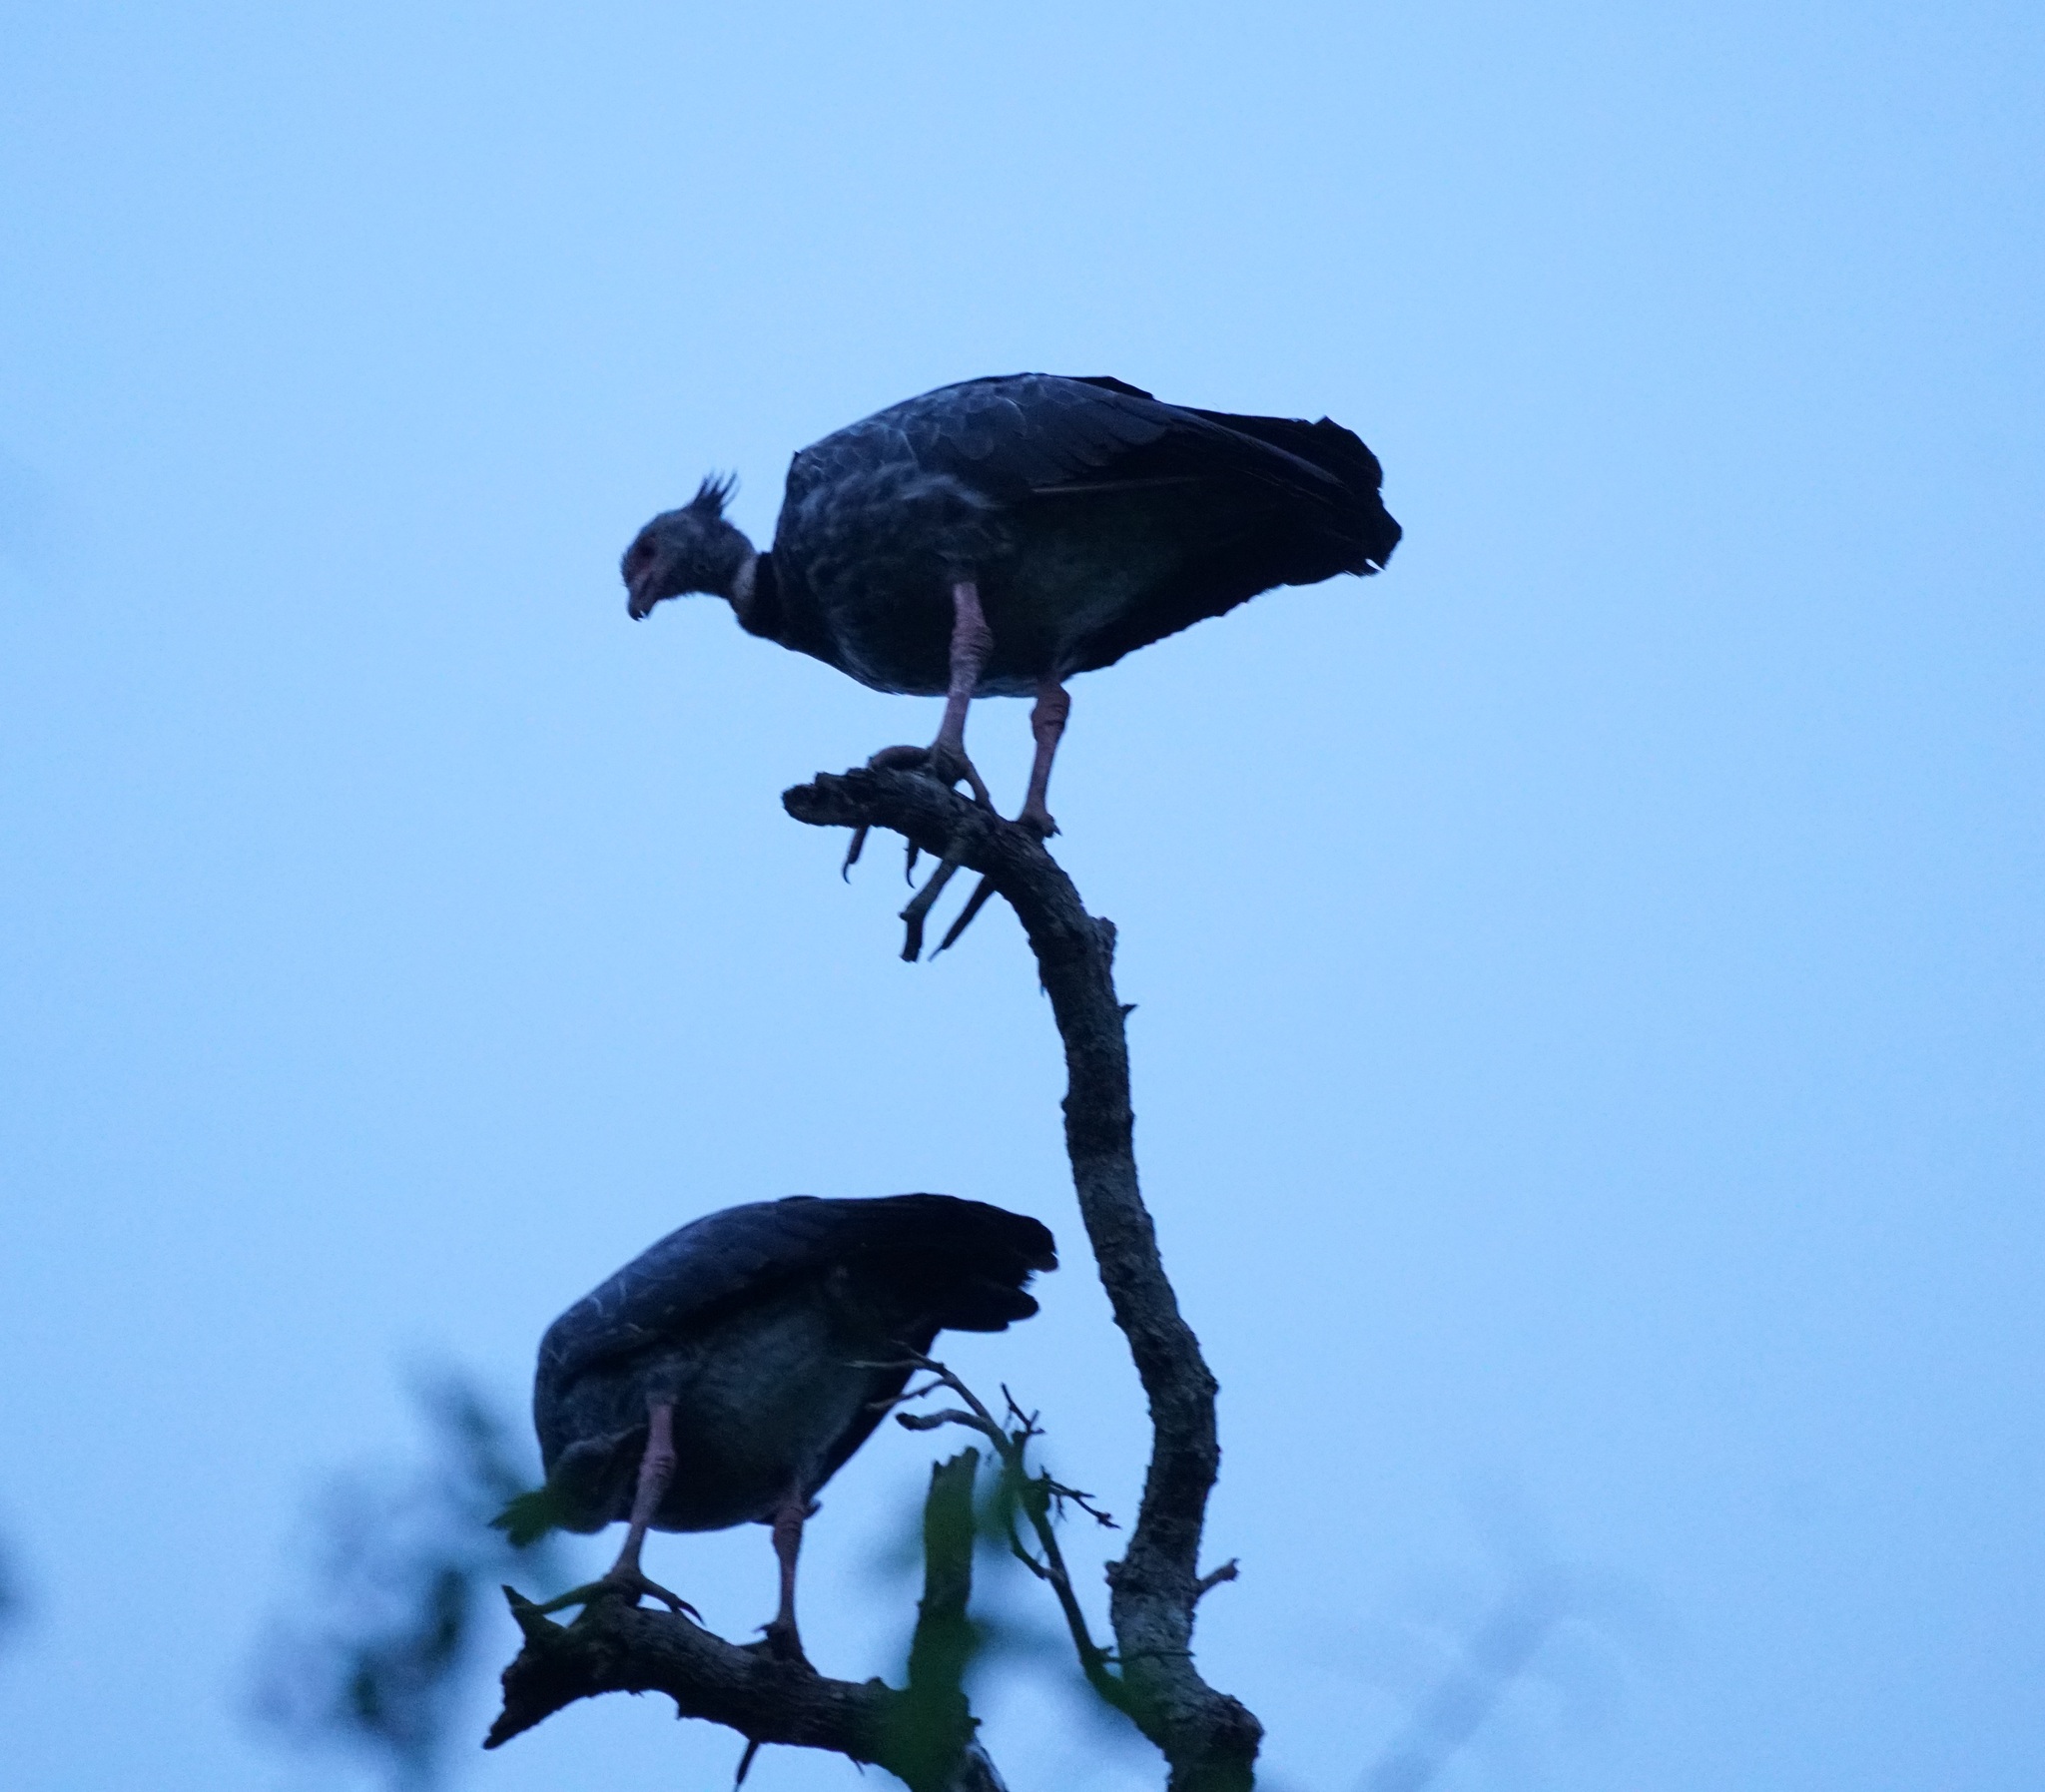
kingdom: Animalia
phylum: Chordata
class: Aves
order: Anseriformes
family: Anhimidae
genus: Chauna
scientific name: Chauna torquata
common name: Southern screamer
